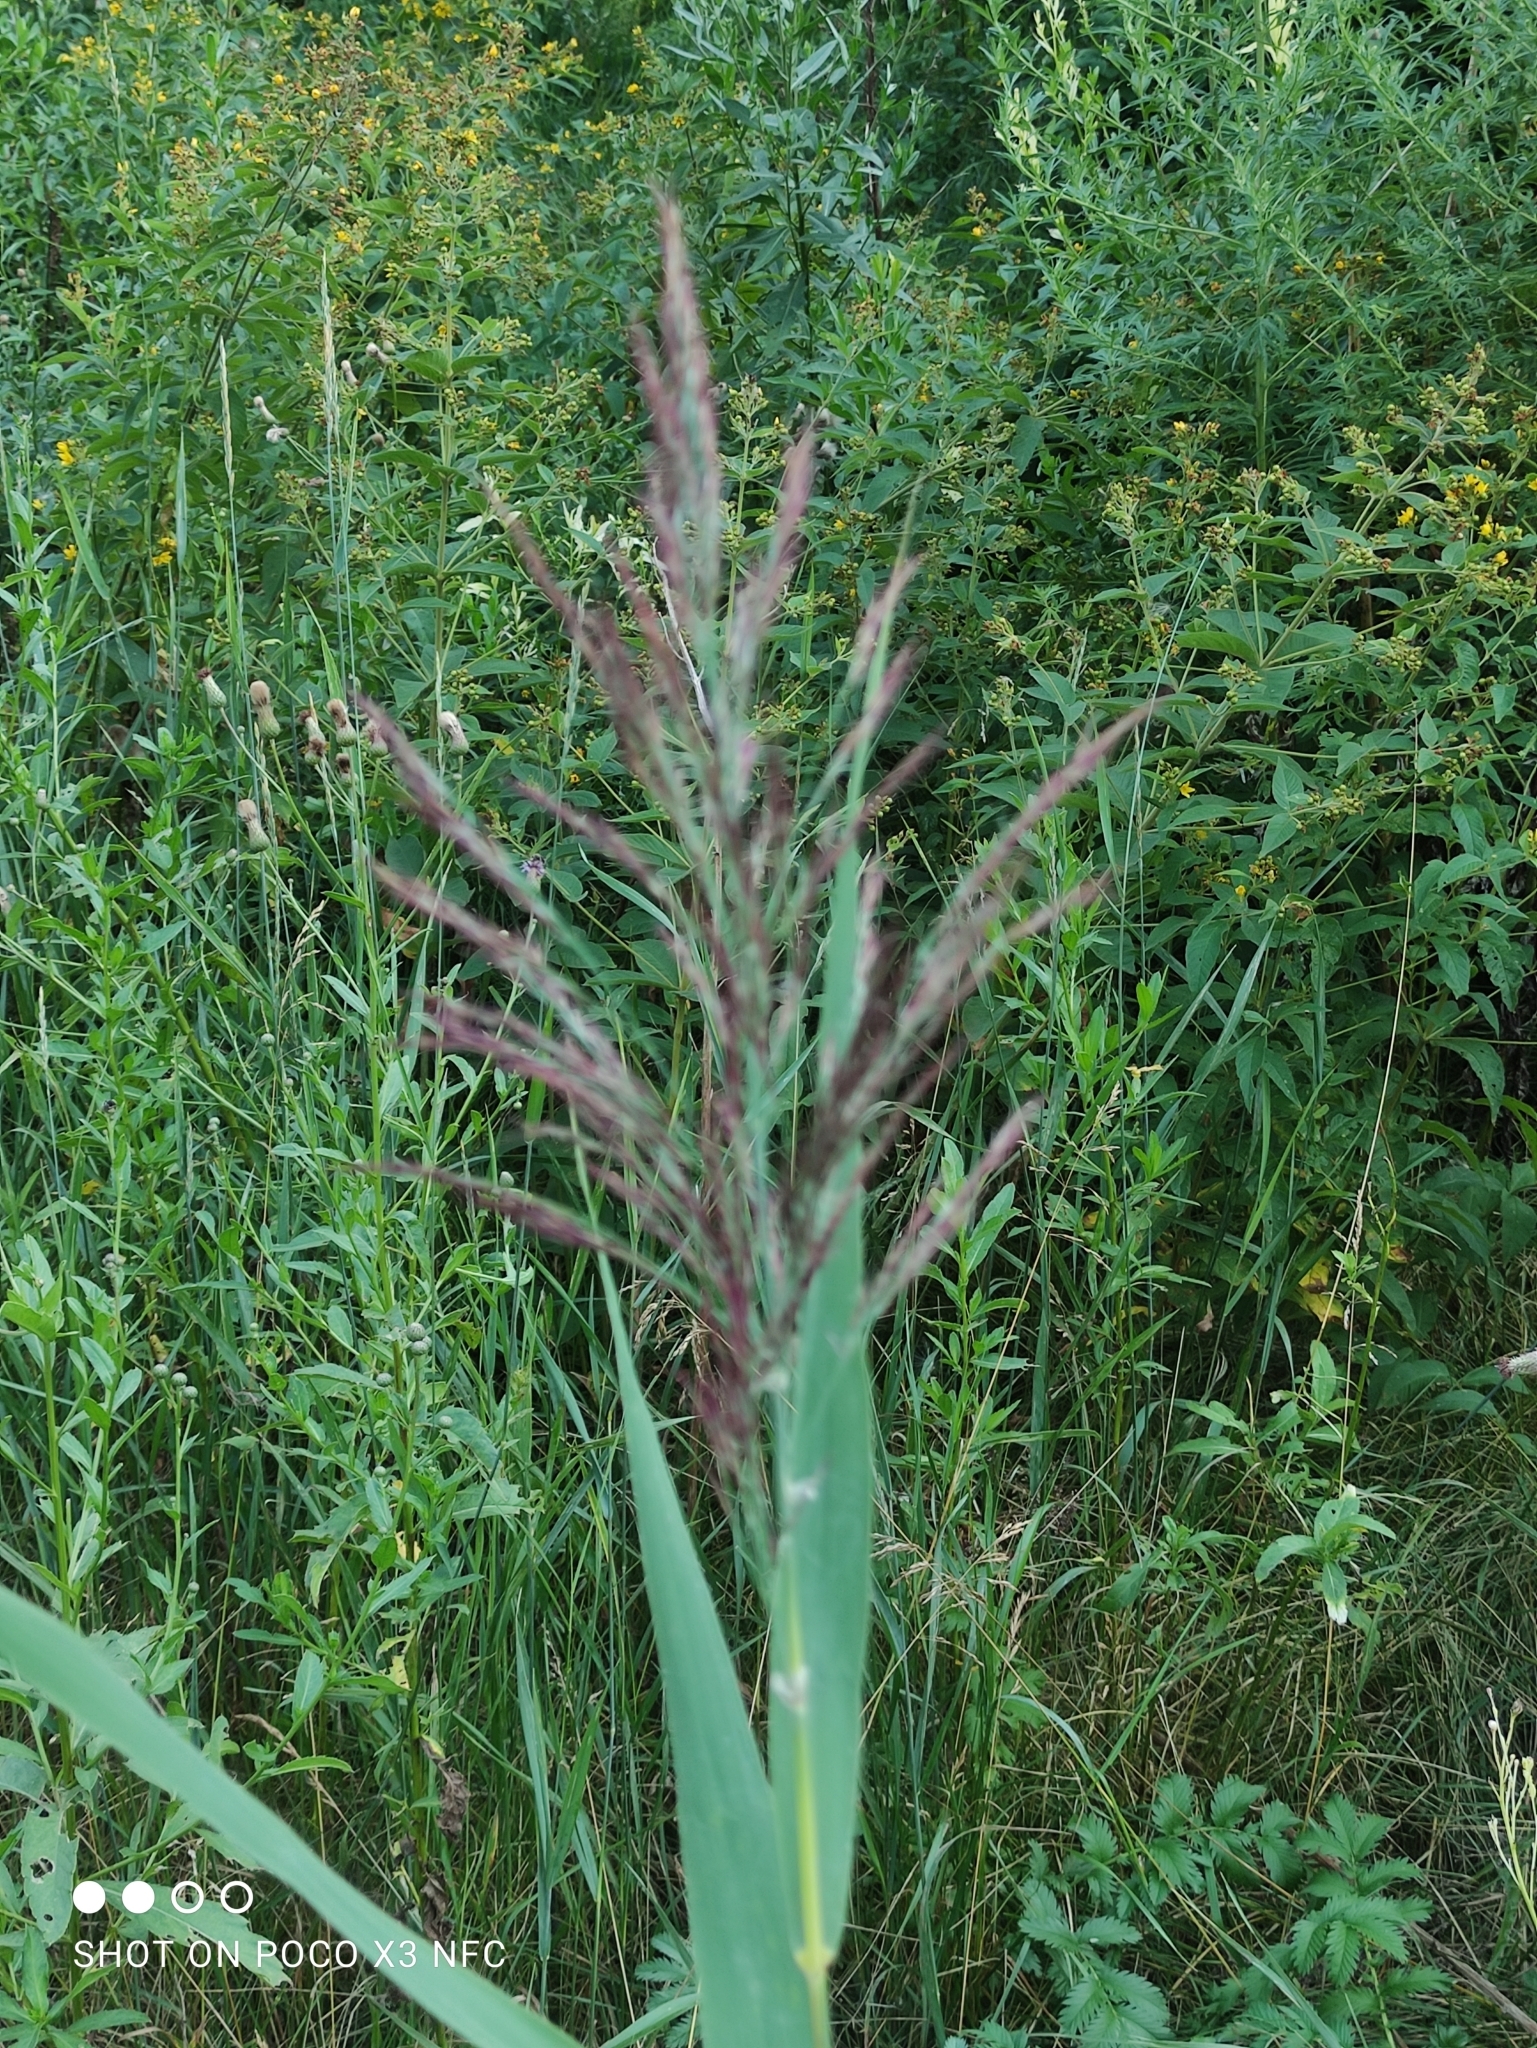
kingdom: Plantae
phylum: Tracheophyta
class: Liliopsida
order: Poales
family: Poaceae
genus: Phragmites
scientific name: Phragmites australis
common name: Common reed
